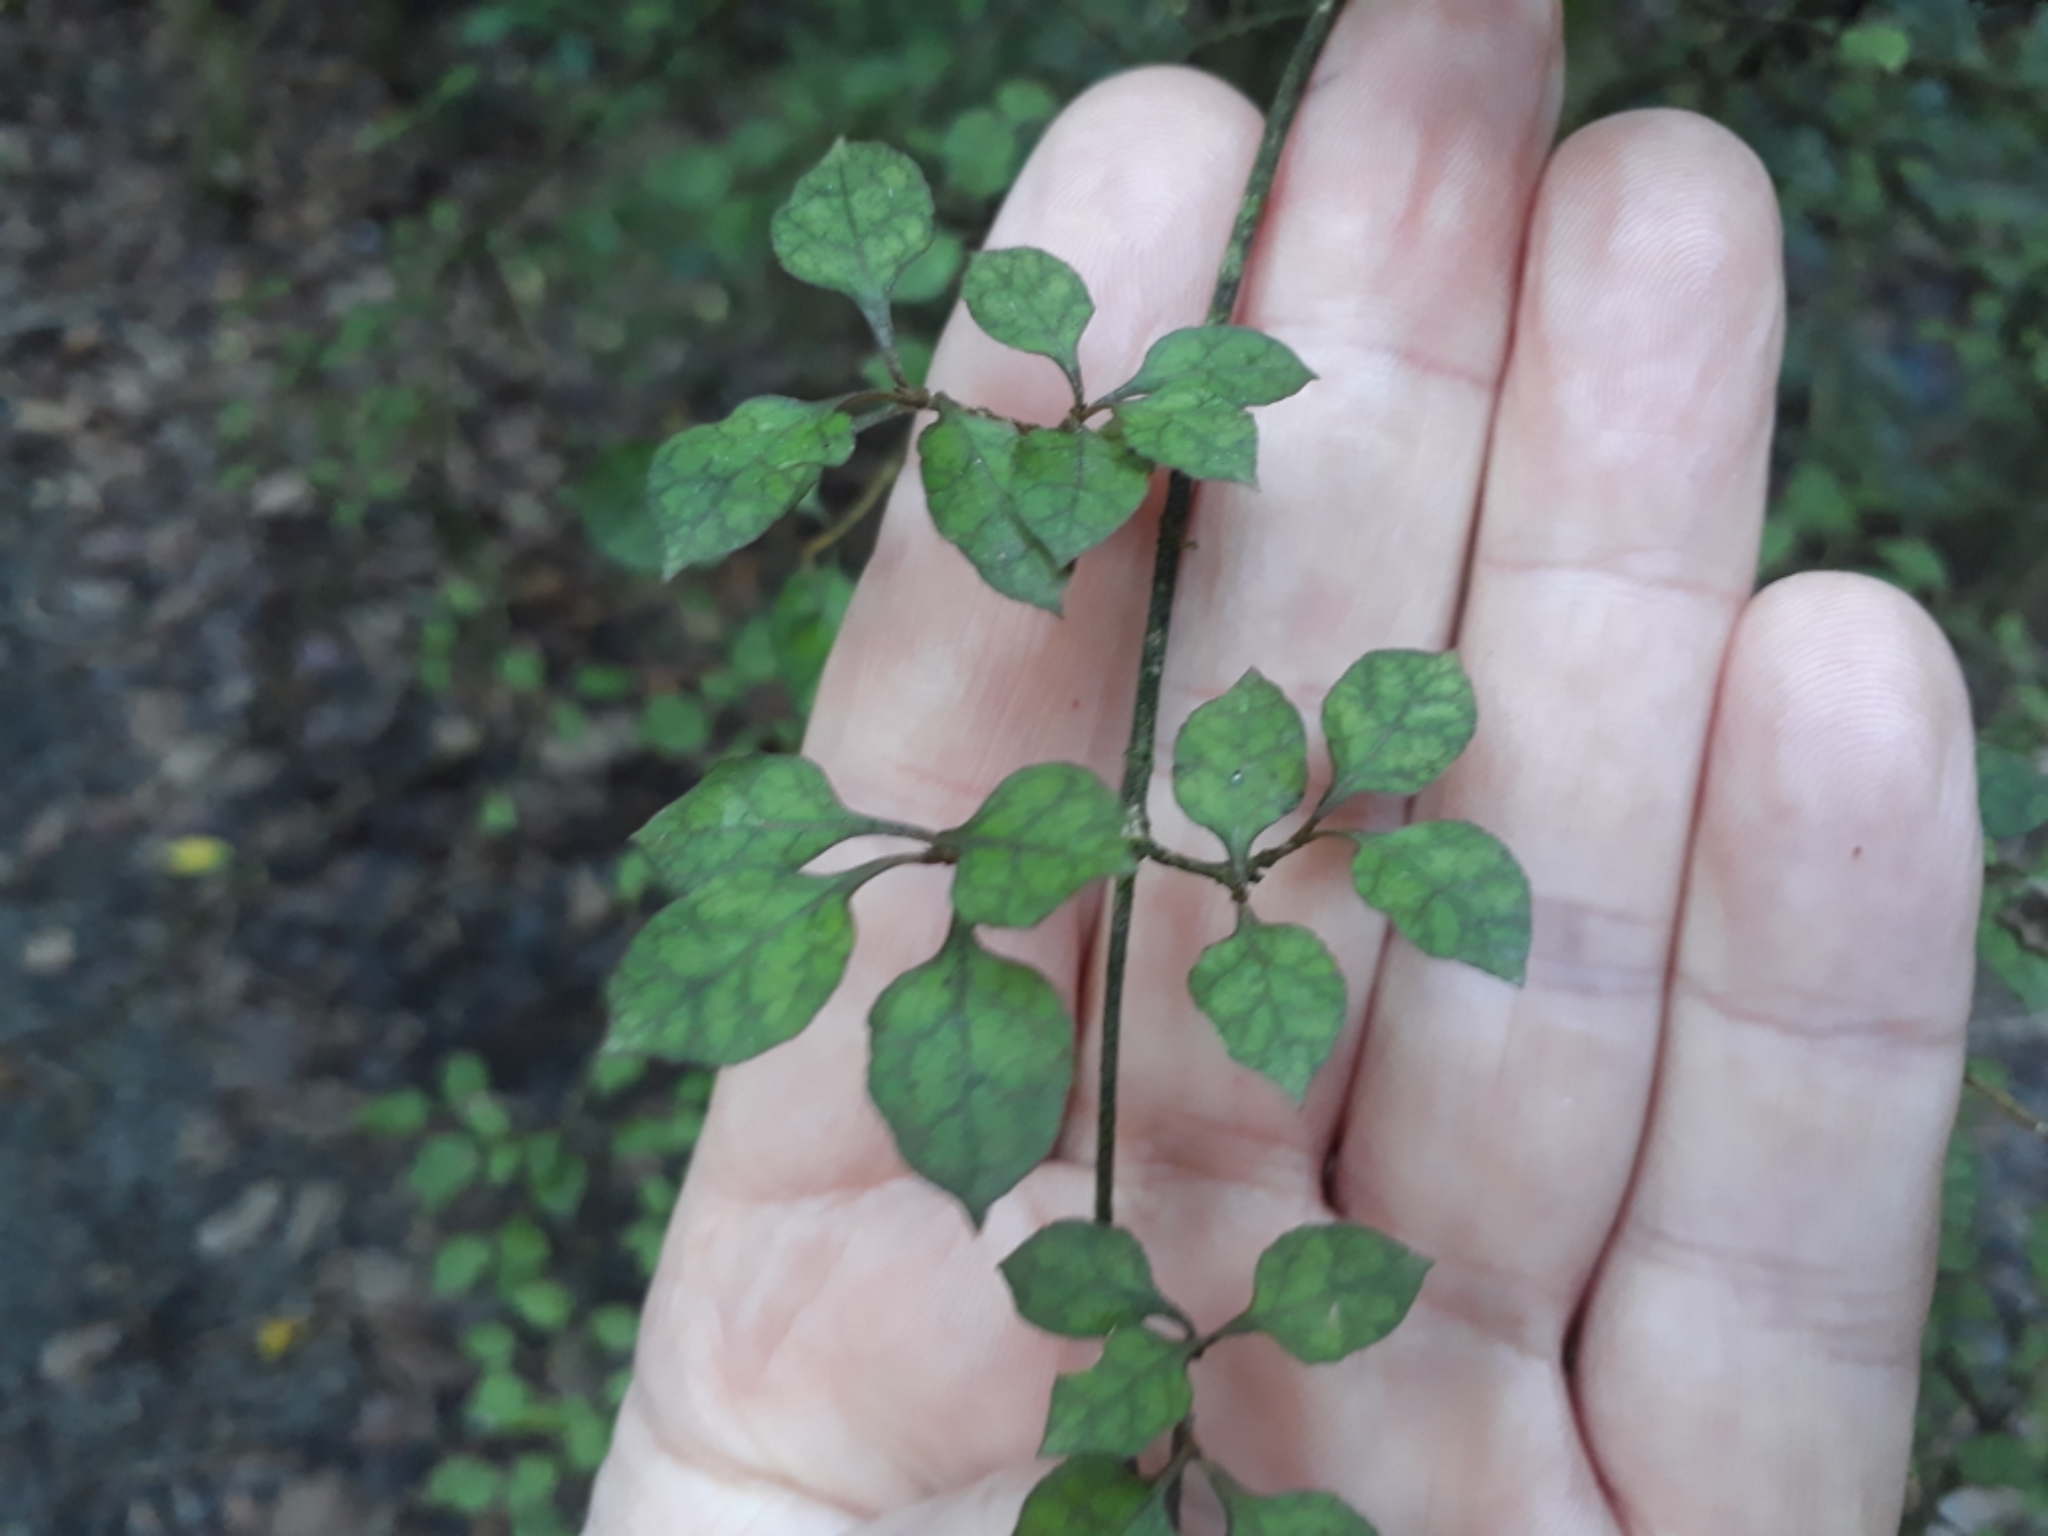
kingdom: Plantae
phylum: Tracheophyta
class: Magnoliopsida
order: Gentianales
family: Rubiaceae
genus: Coprosma
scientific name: Coprosma areolata
